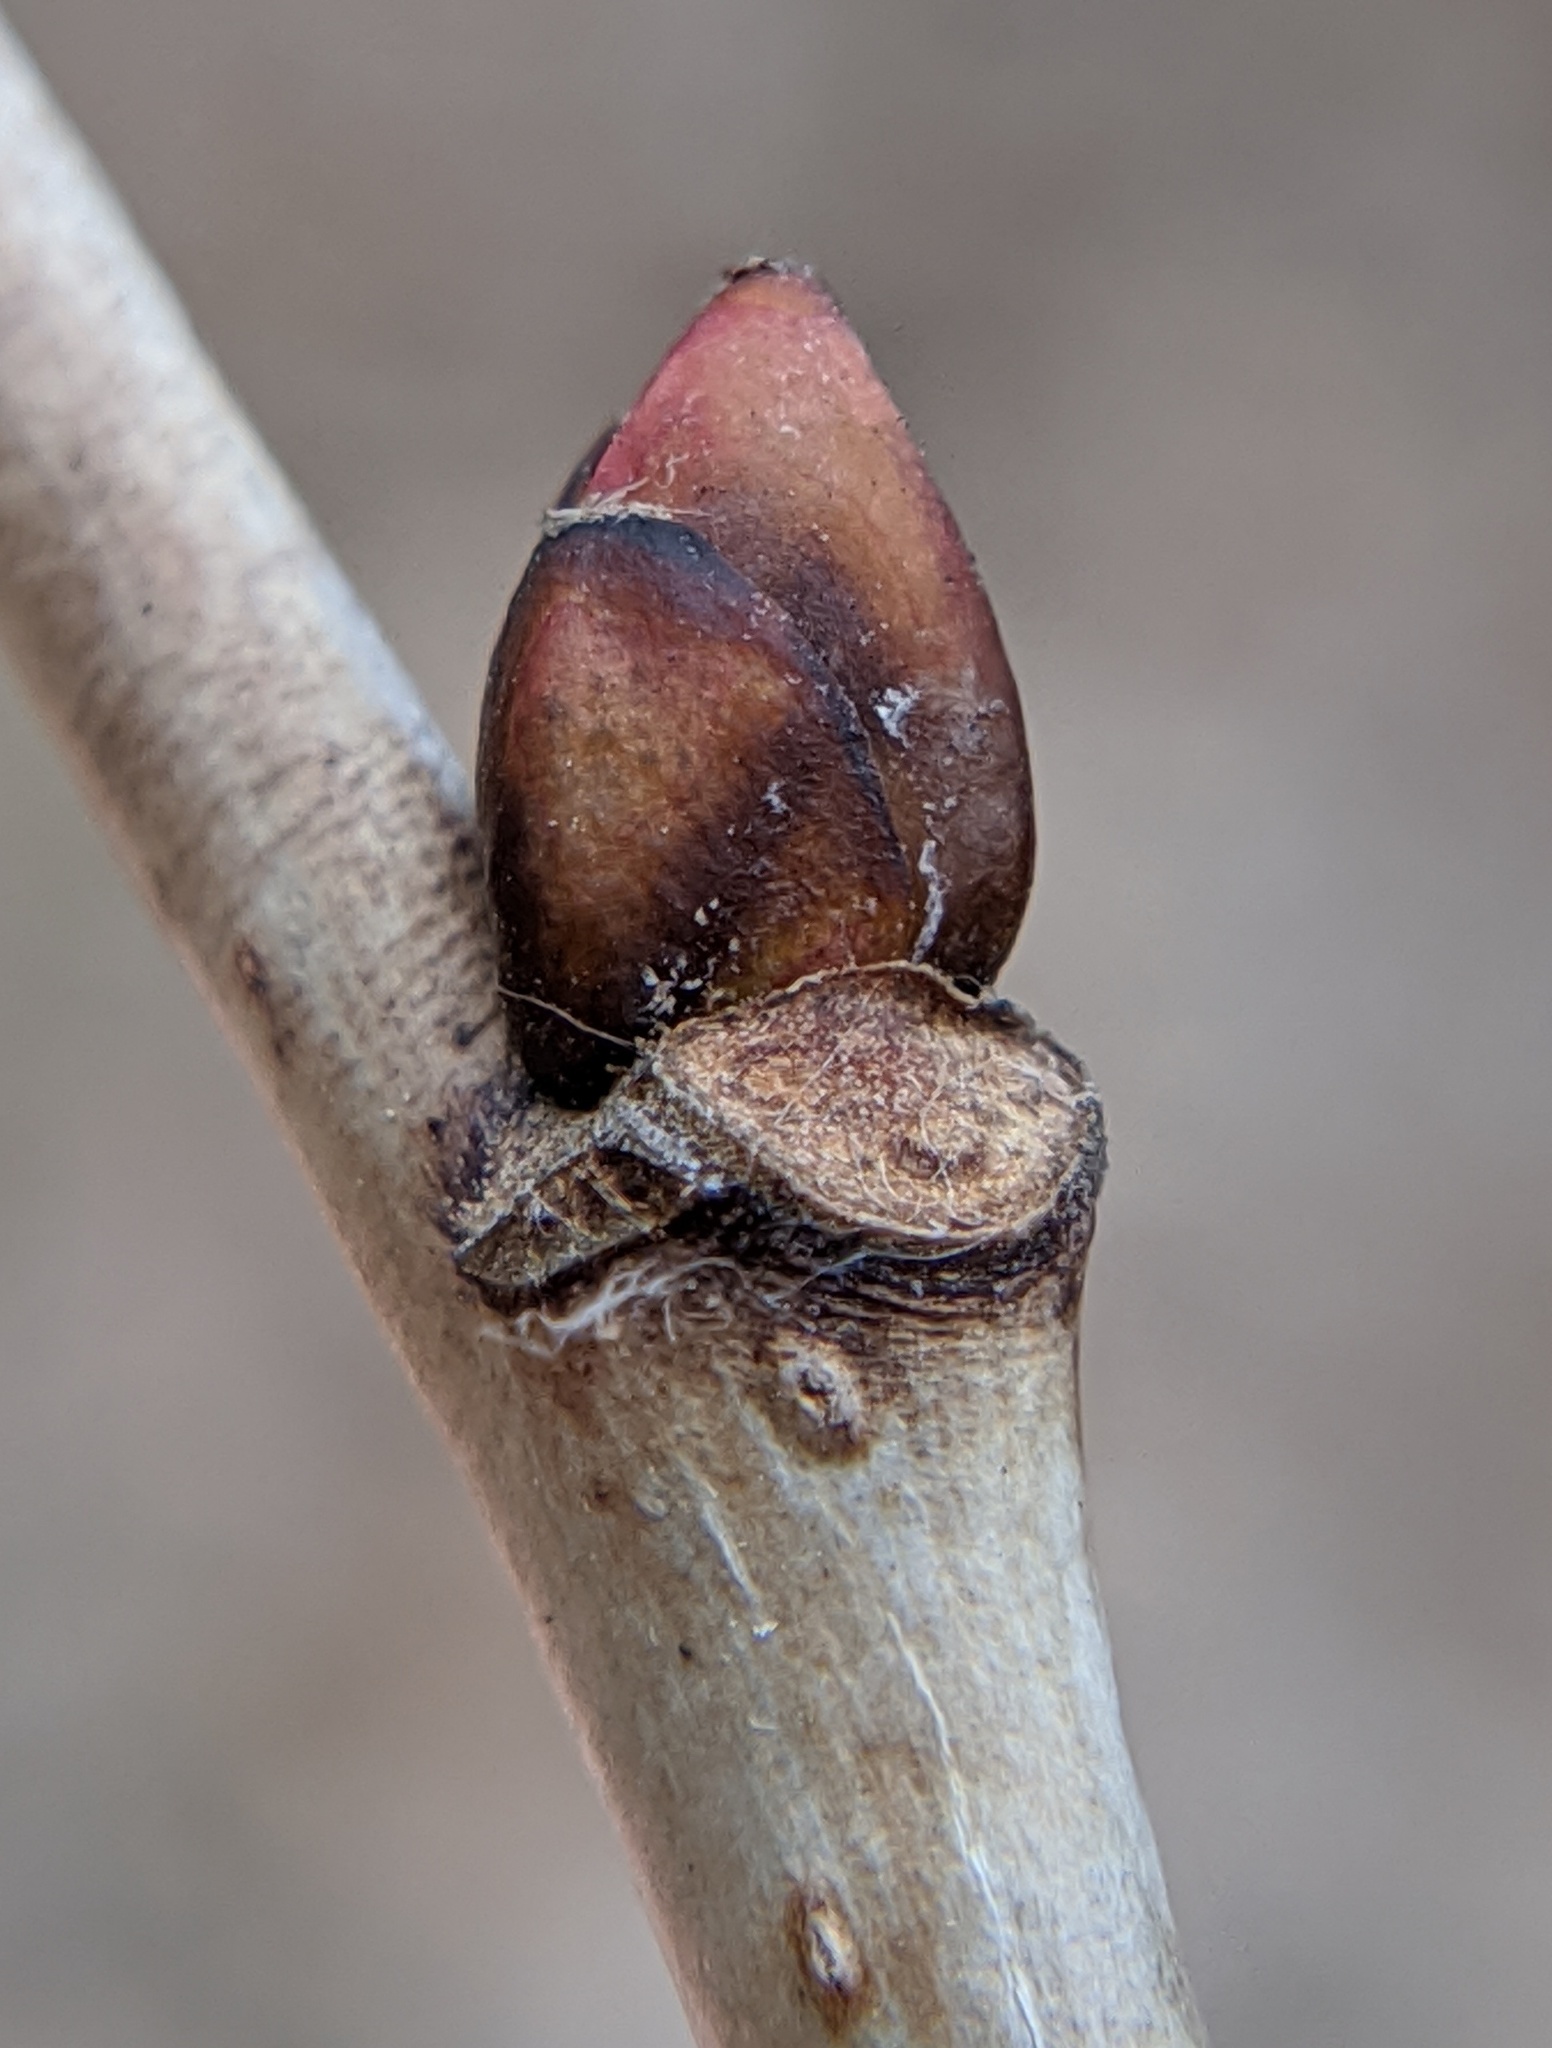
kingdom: Plantae
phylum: Tracheophyta
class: Magnoliopsida
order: Malvales
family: Malvaceae
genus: Tilia
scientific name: Tilia americana
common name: Basswood
